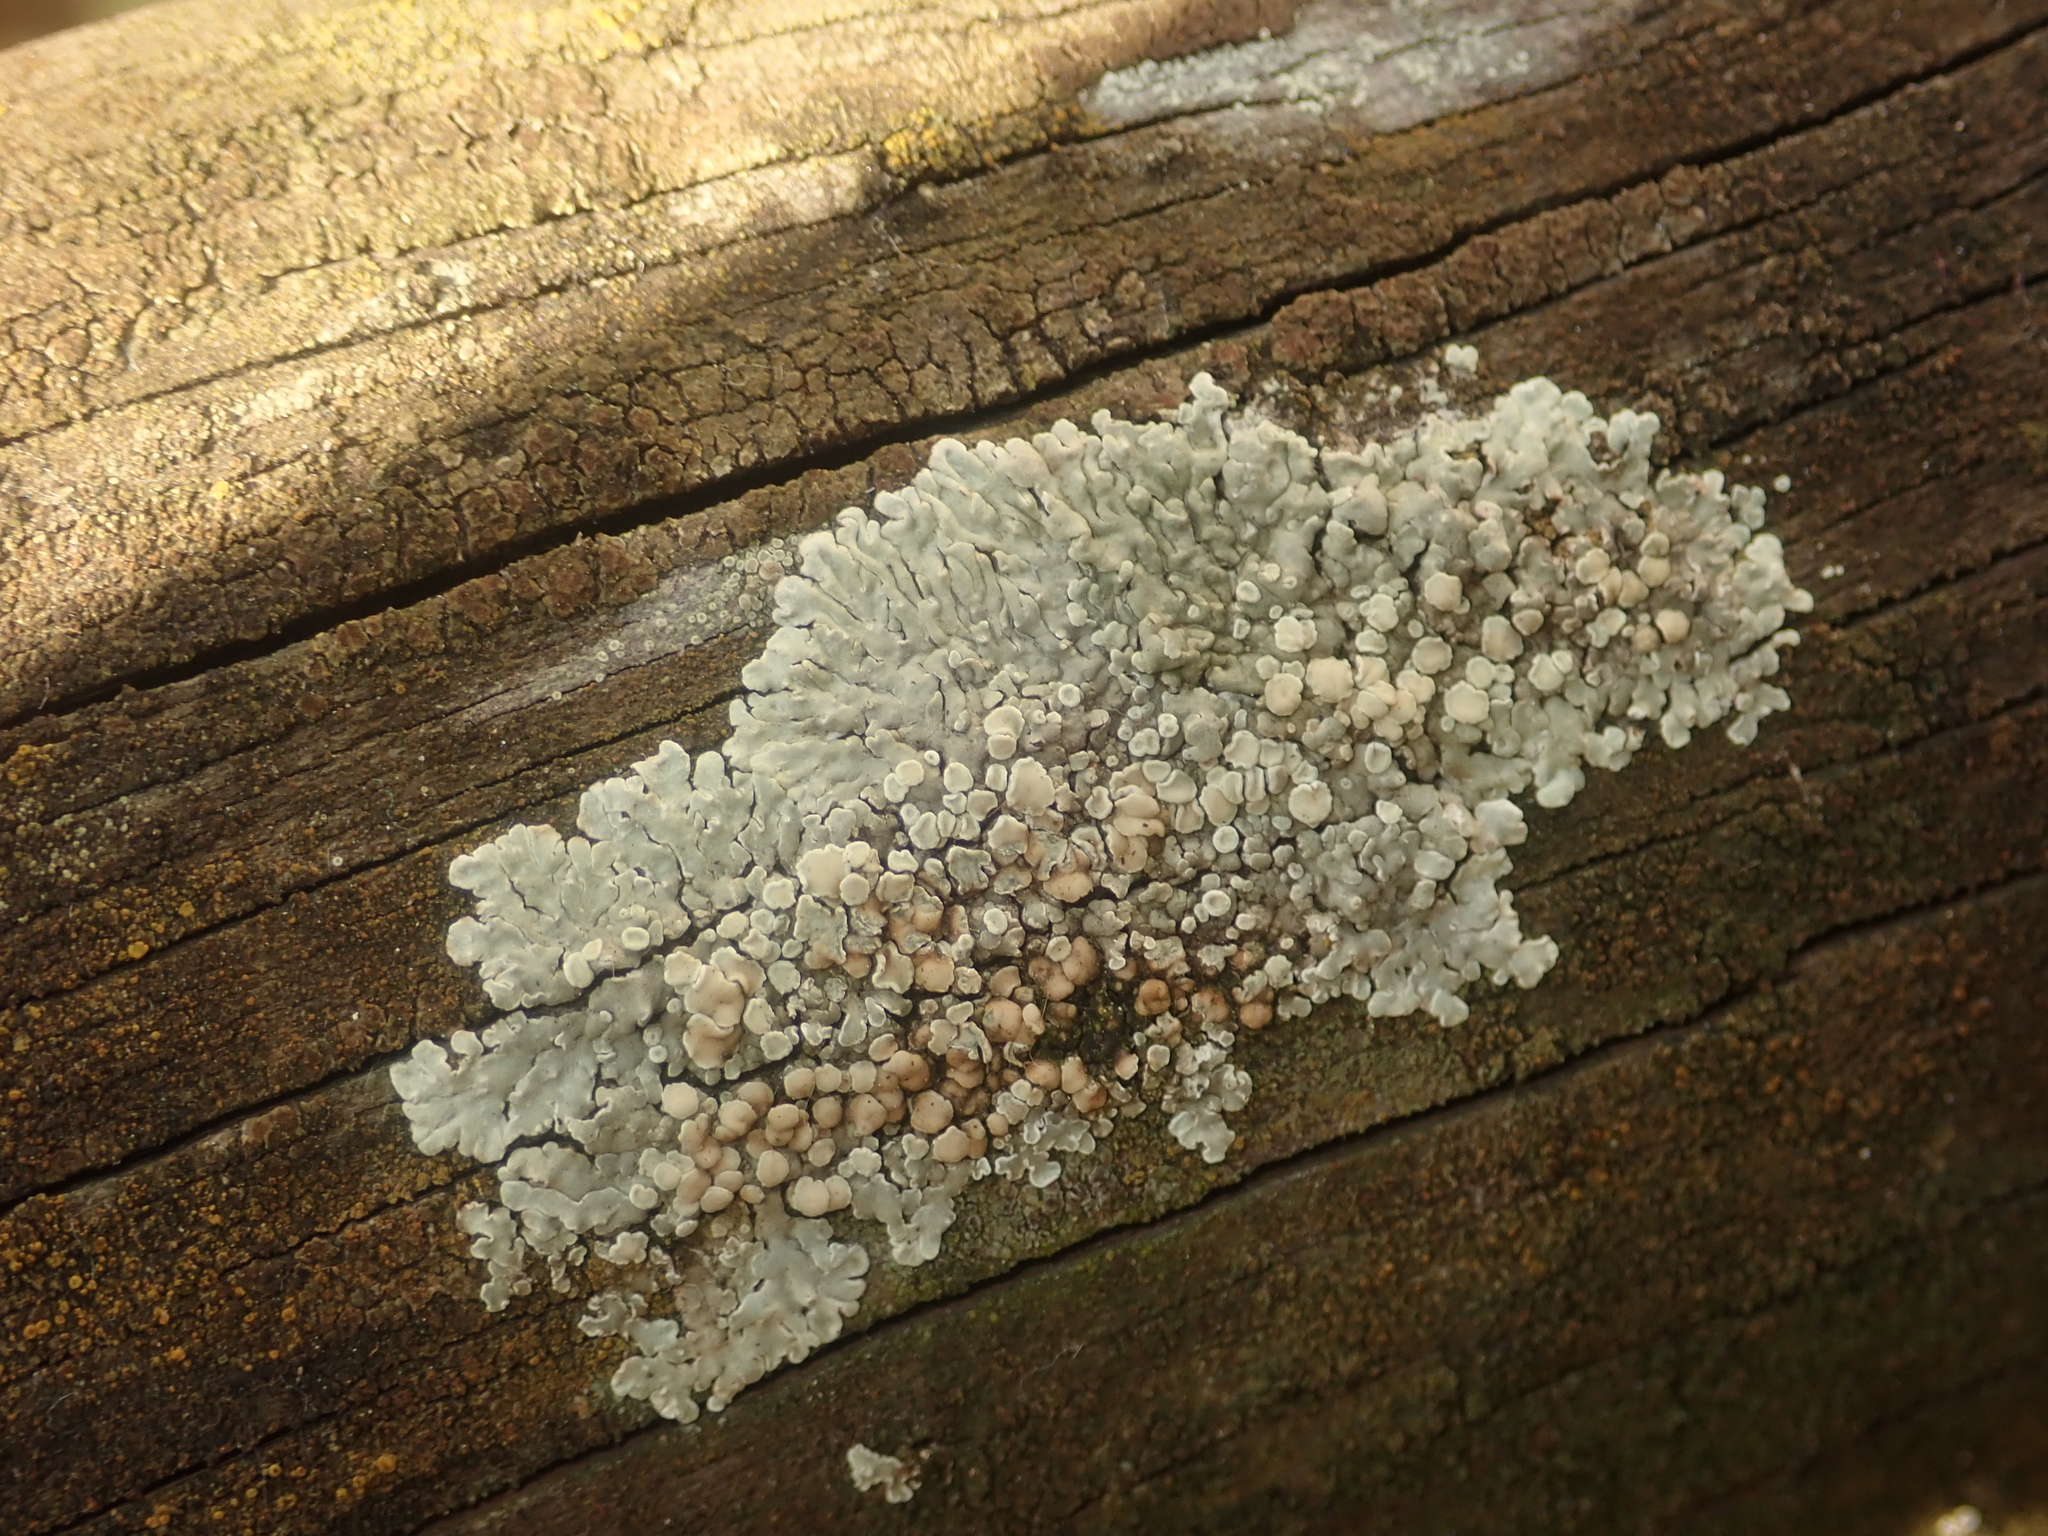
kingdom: Fungi
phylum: Ascomycota
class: Lecanoromycetes
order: Lecanorales
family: Lecanoraceae
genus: Protoparmeliopsis
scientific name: Protoparmeliopsis muralis
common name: Stonewall rim lichen
